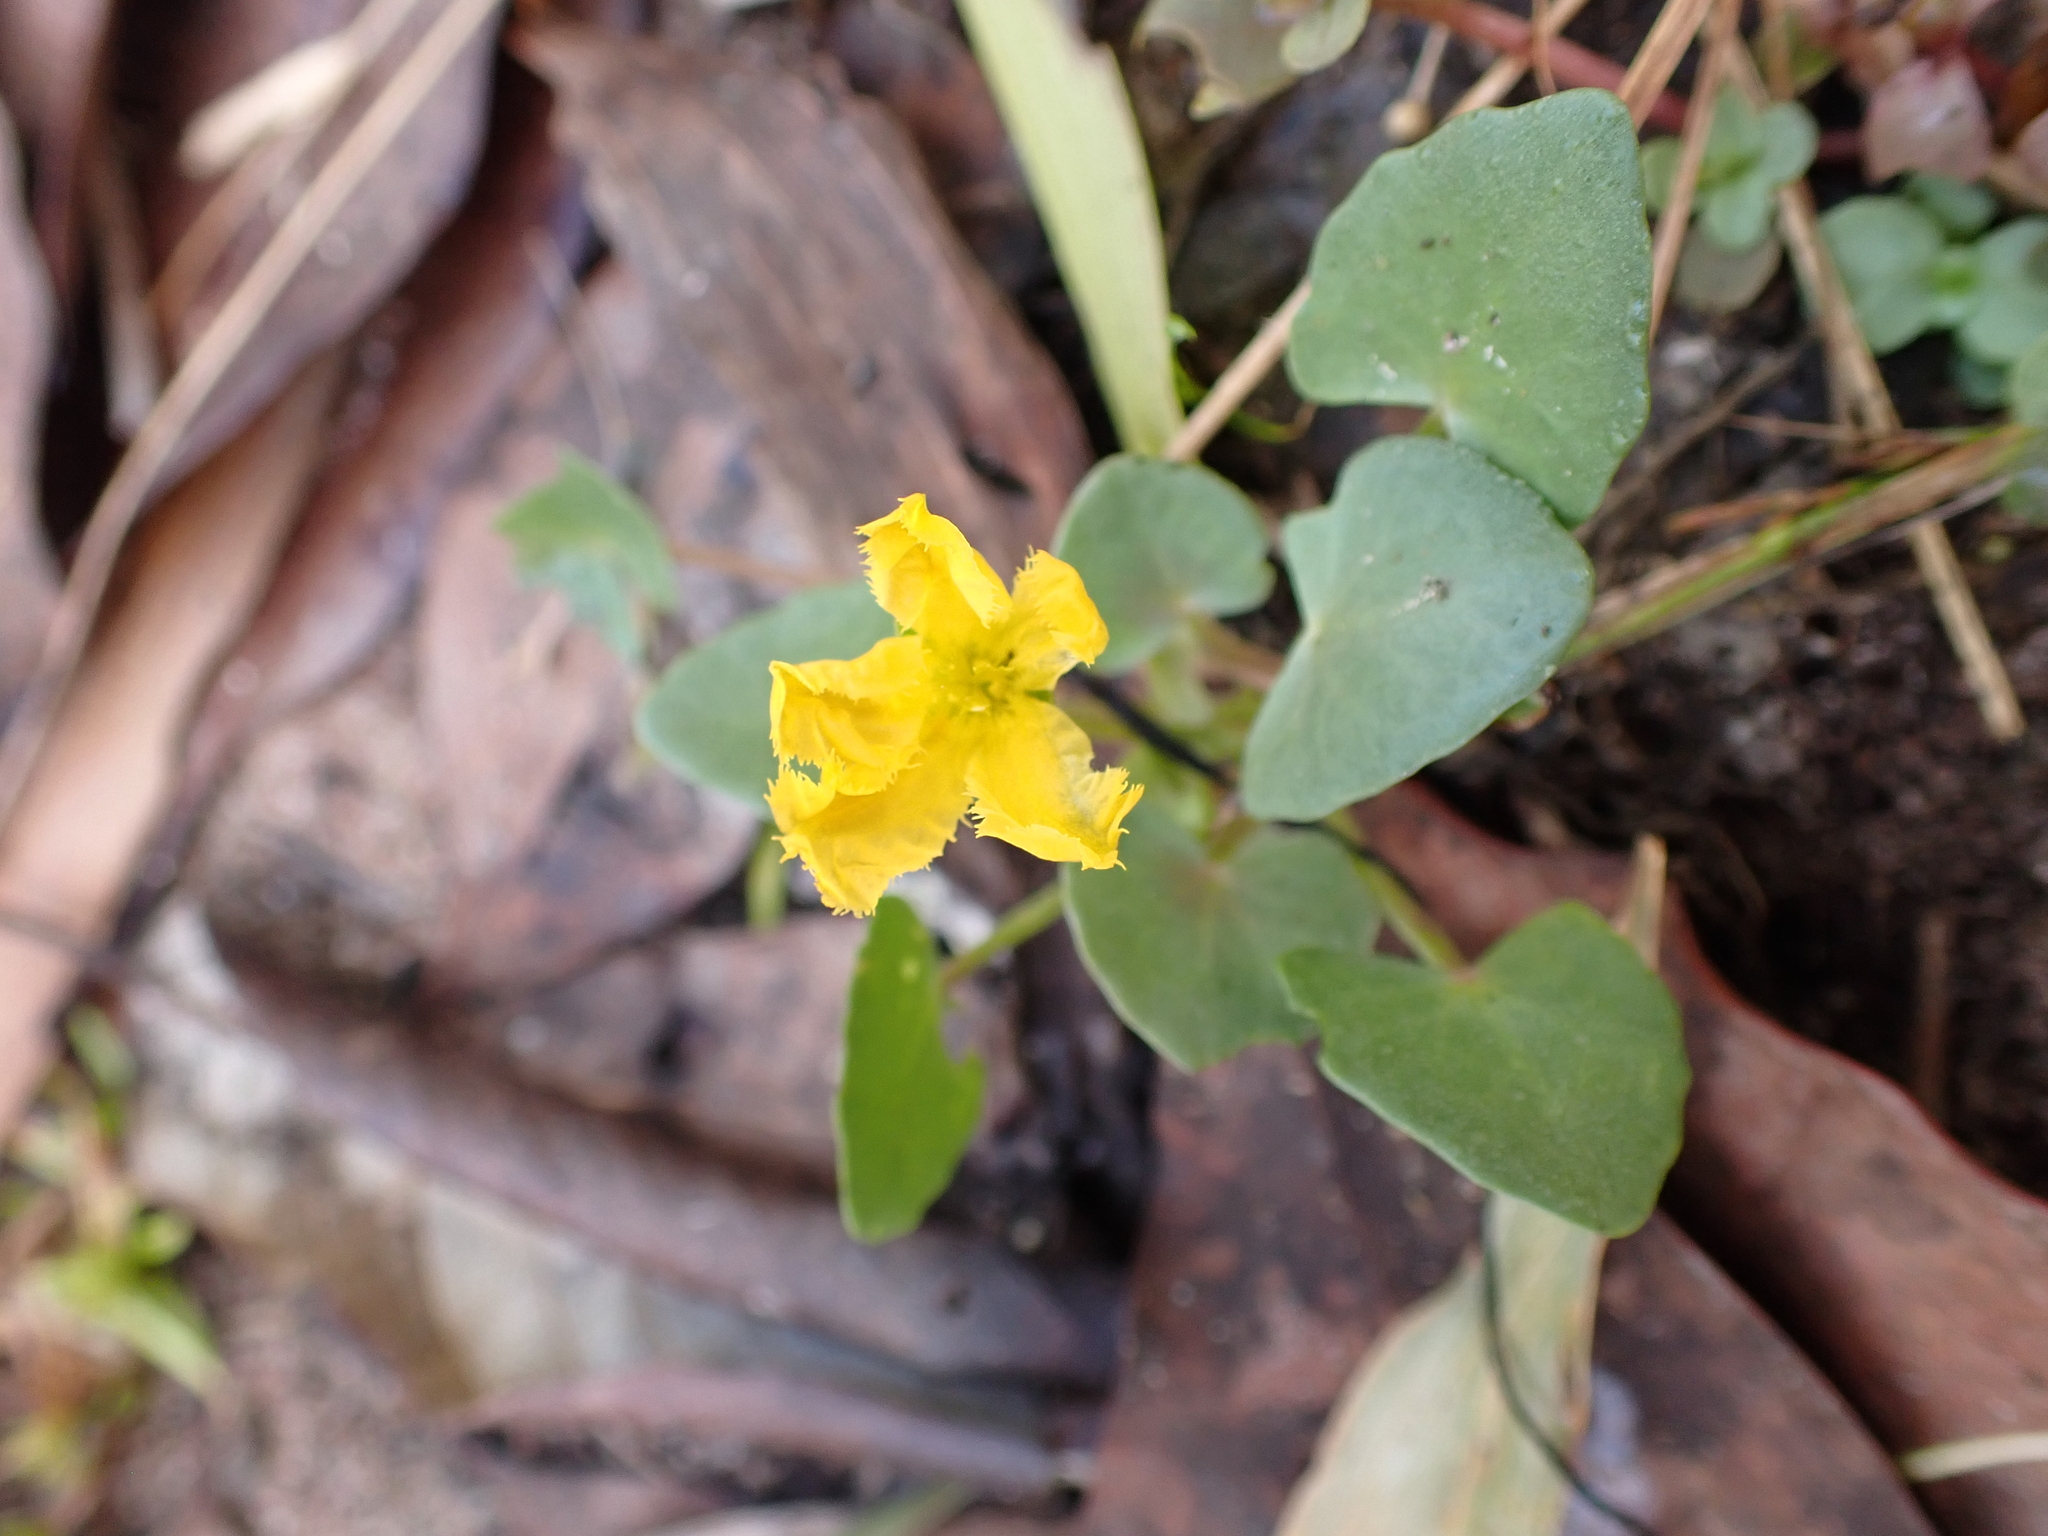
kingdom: Plantae
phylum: Tracheophyta
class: Magnoliopsida
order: Asterales
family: Menyanthaceae
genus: Nymphoides
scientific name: Nymphoides aurantiaca
